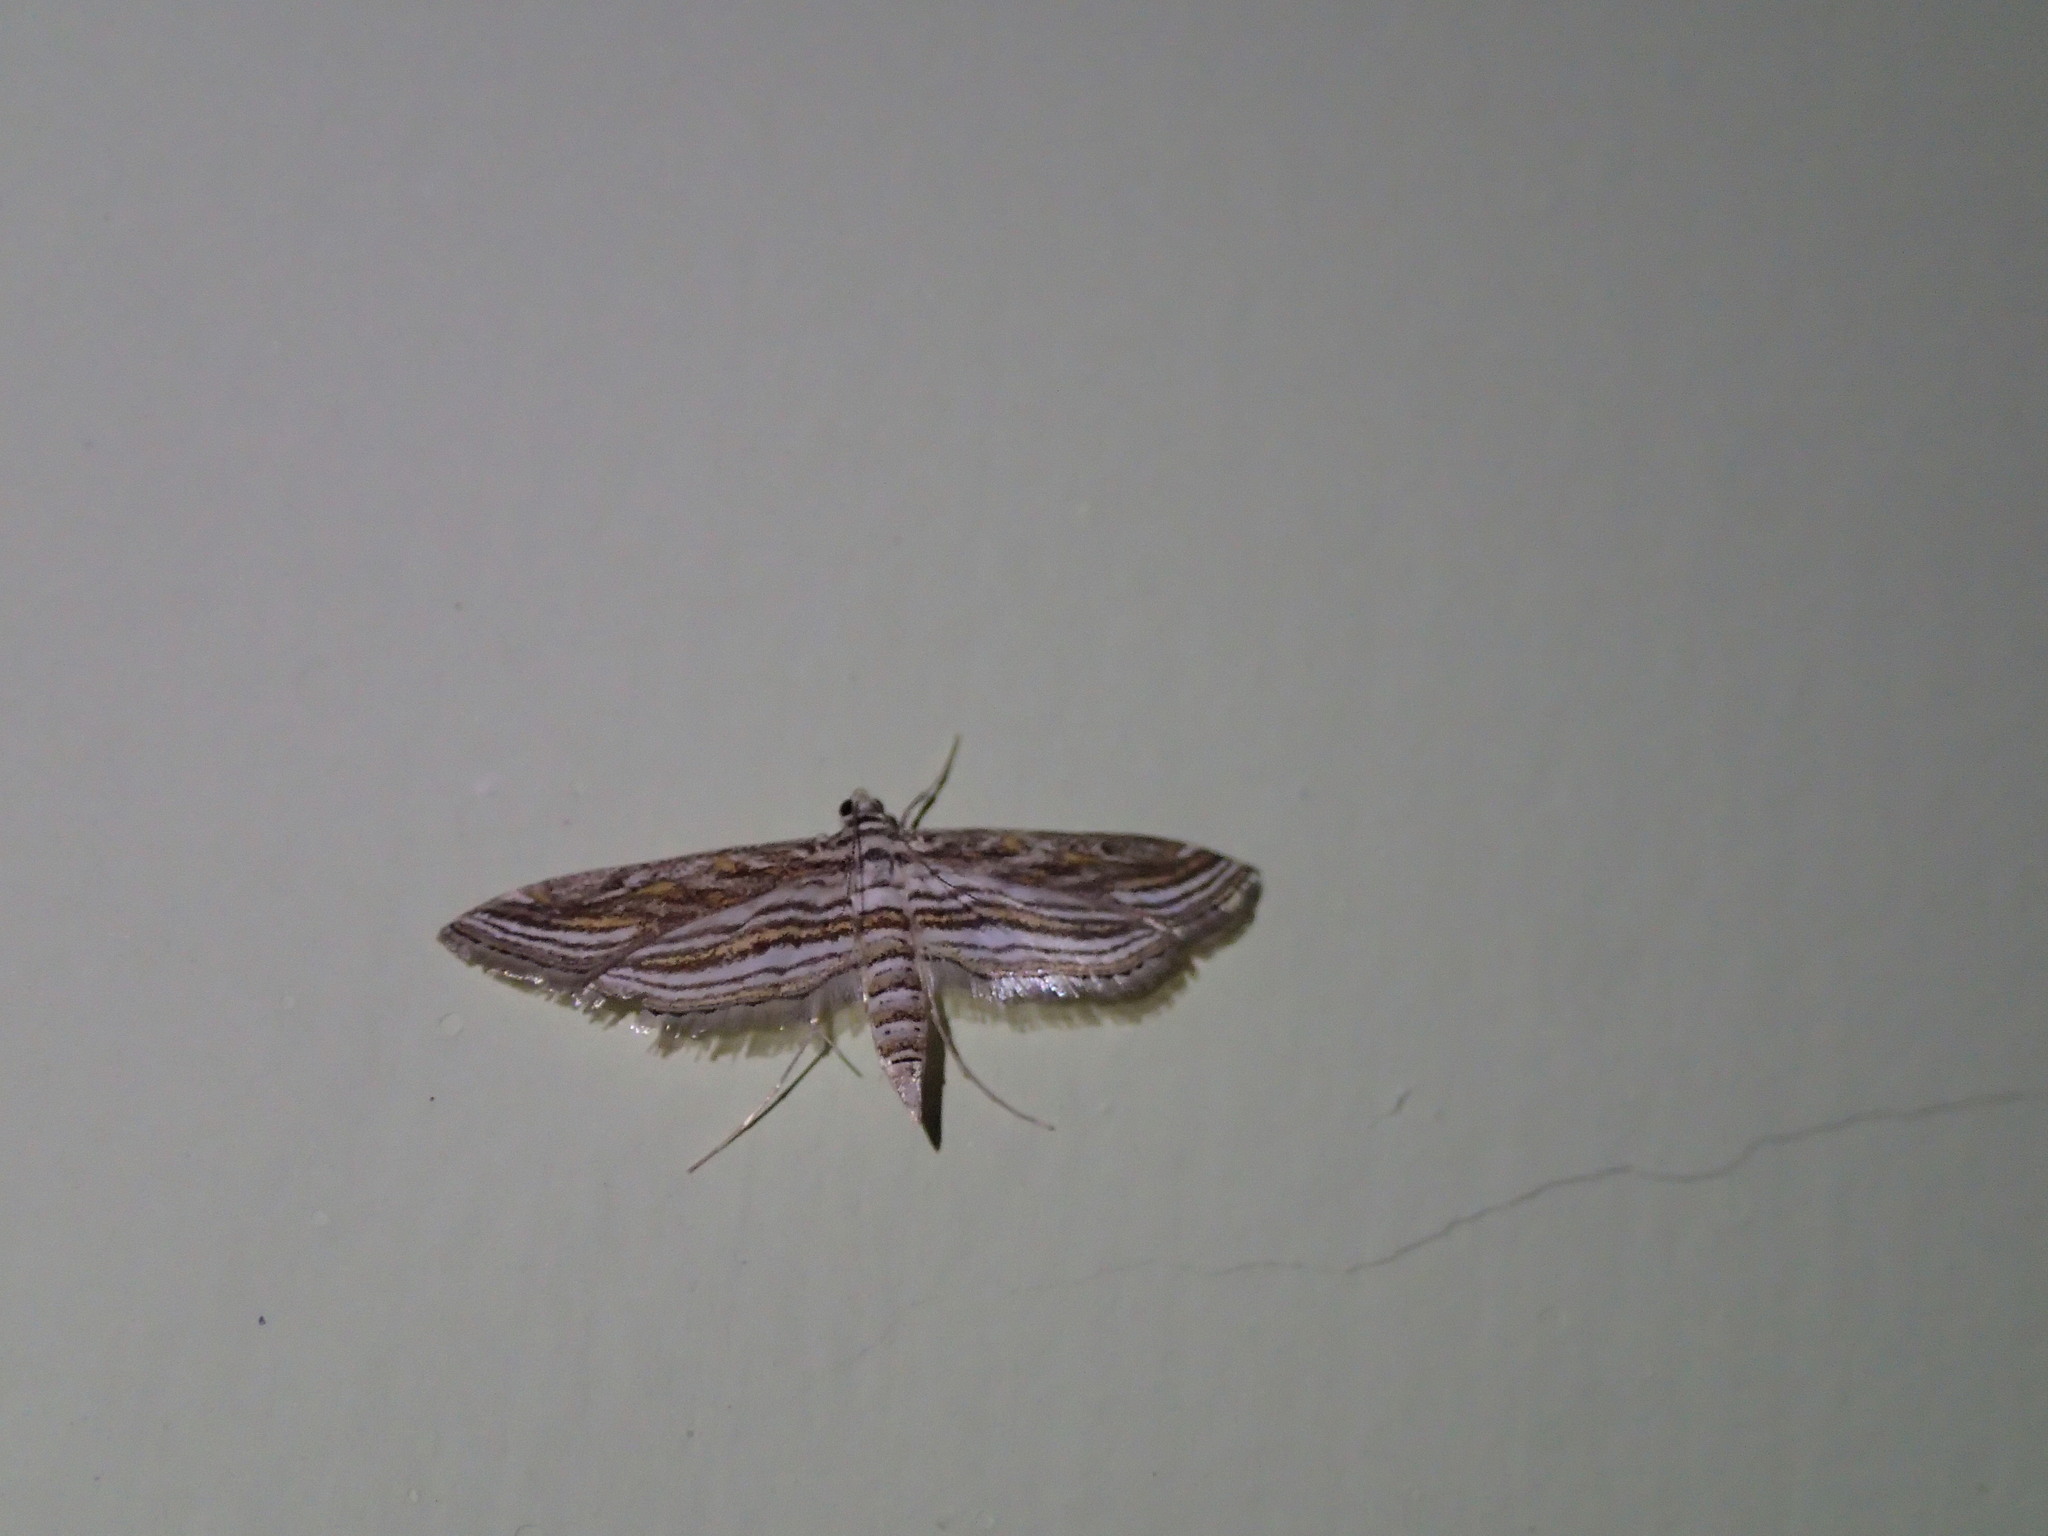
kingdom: Animalia
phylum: Arthropoda
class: Insecta
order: Lepidoptera
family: Crambidae
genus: Parapoynx
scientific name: Parapoynx fluctuosalis
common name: Moth
